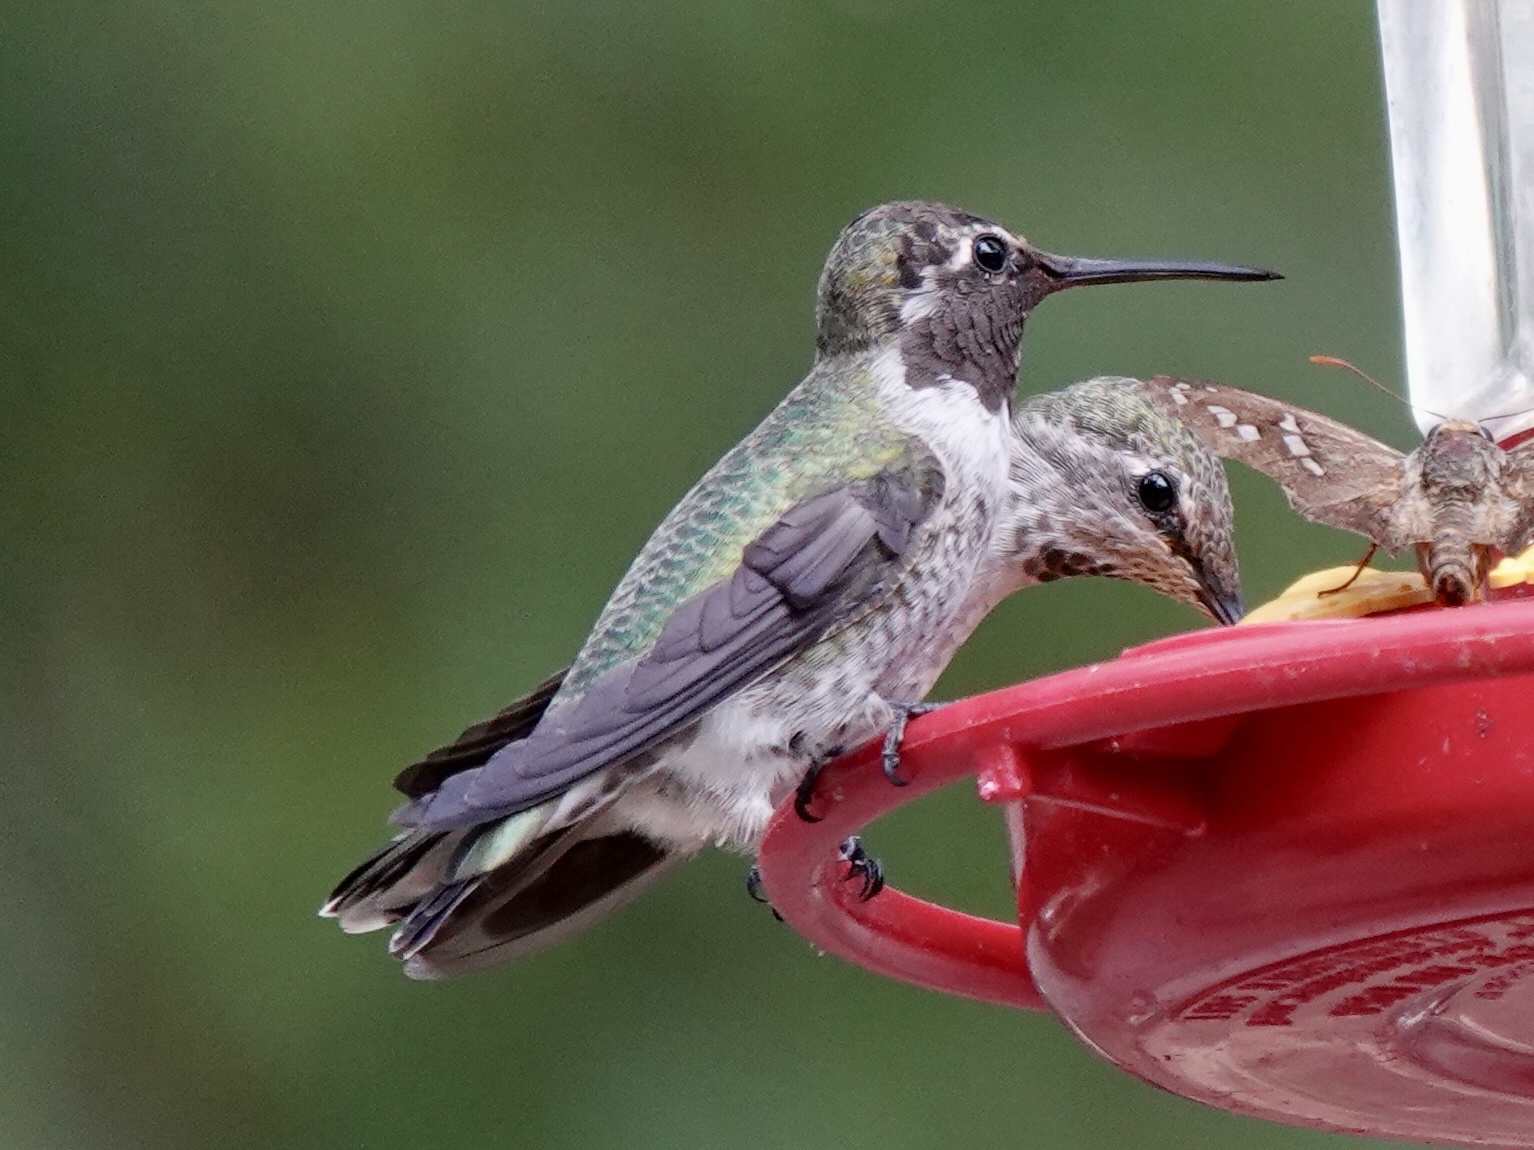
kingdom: Animalia
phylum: Chordata
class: Aves
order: Apodiformes
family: Trochilidae
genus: Calypte
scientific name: Calypte anna
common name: Anna's hummingbird
